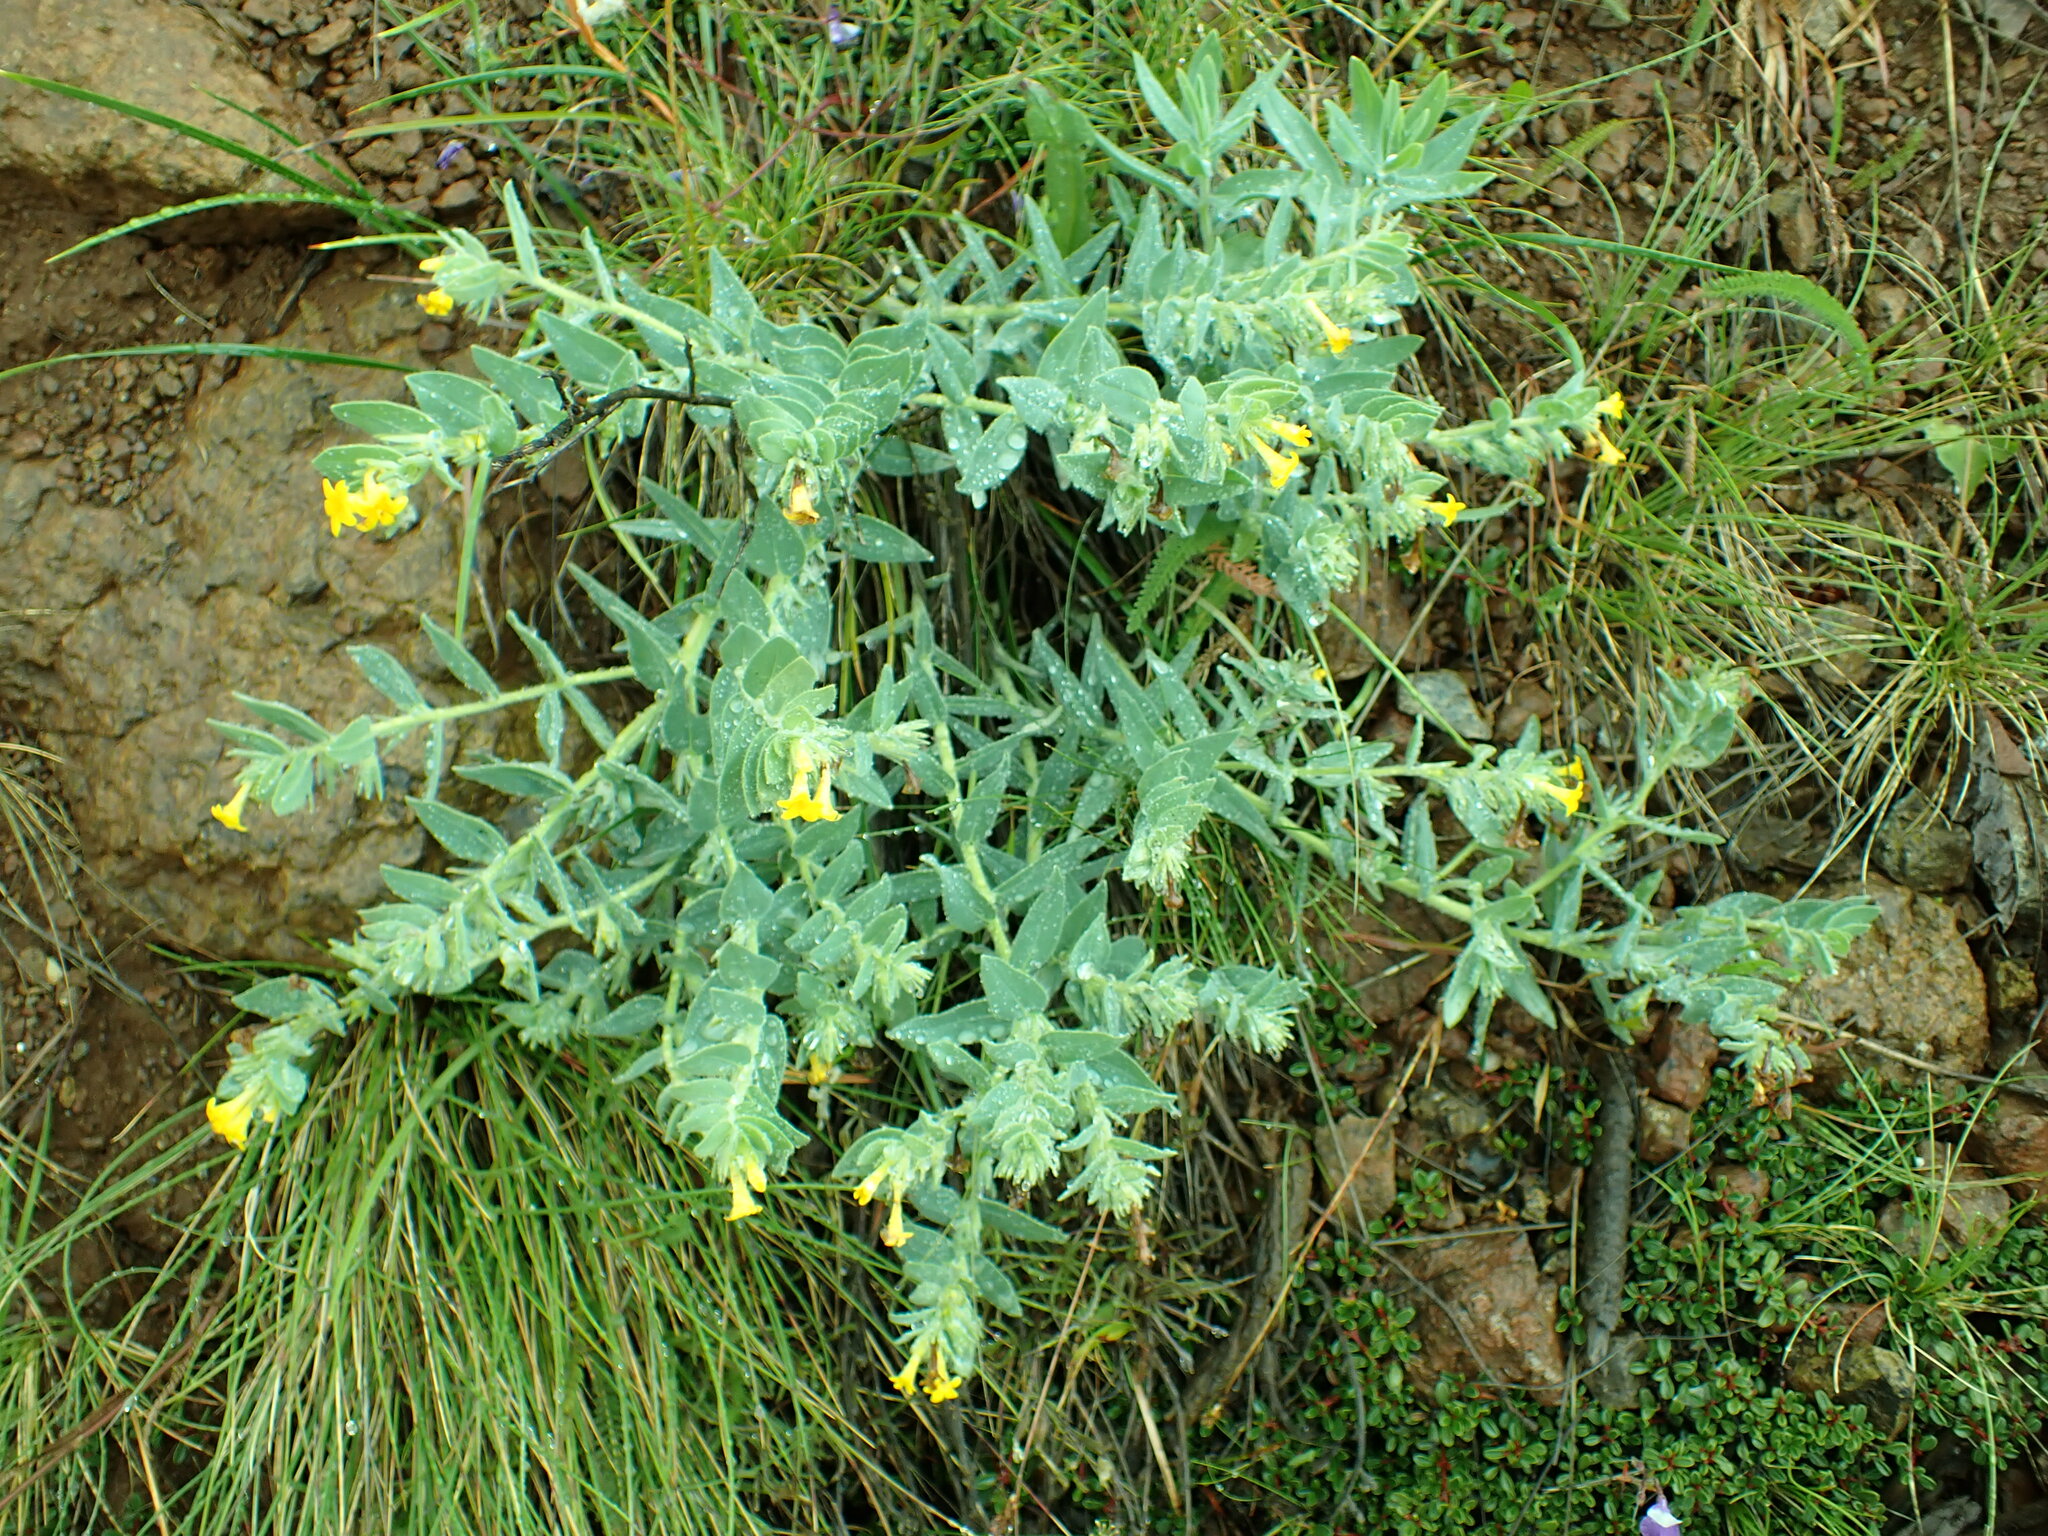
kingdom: Plantae
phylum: Tracheophyta
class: Magnoliopsida
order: Boraginales
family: Boraginaceae
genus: Lithospermum
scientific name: Lithospermum californicum
